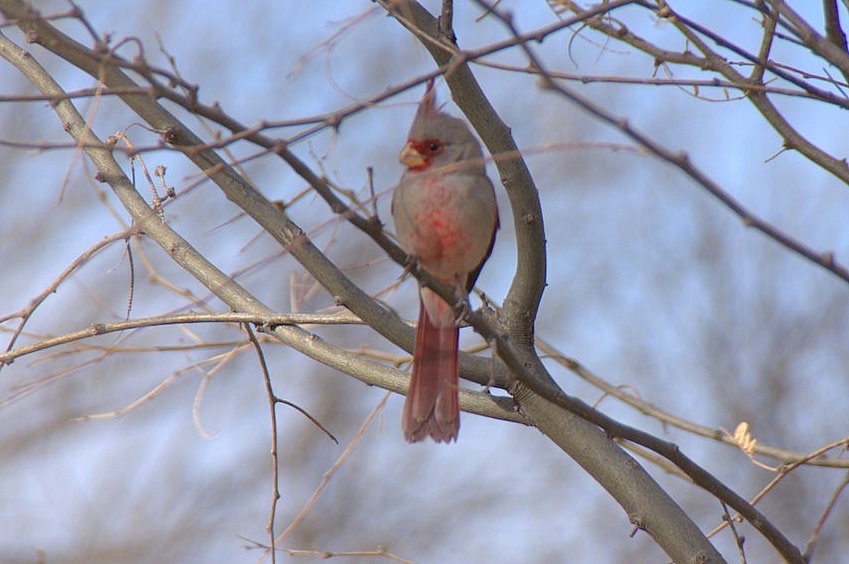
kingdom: Animalia
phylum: Chordata
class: Aves
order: Passeriformes
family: Cardinalidae
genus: Cardinalis
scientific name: Cardinalis sinuatus
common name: Pyrrhuloxia
